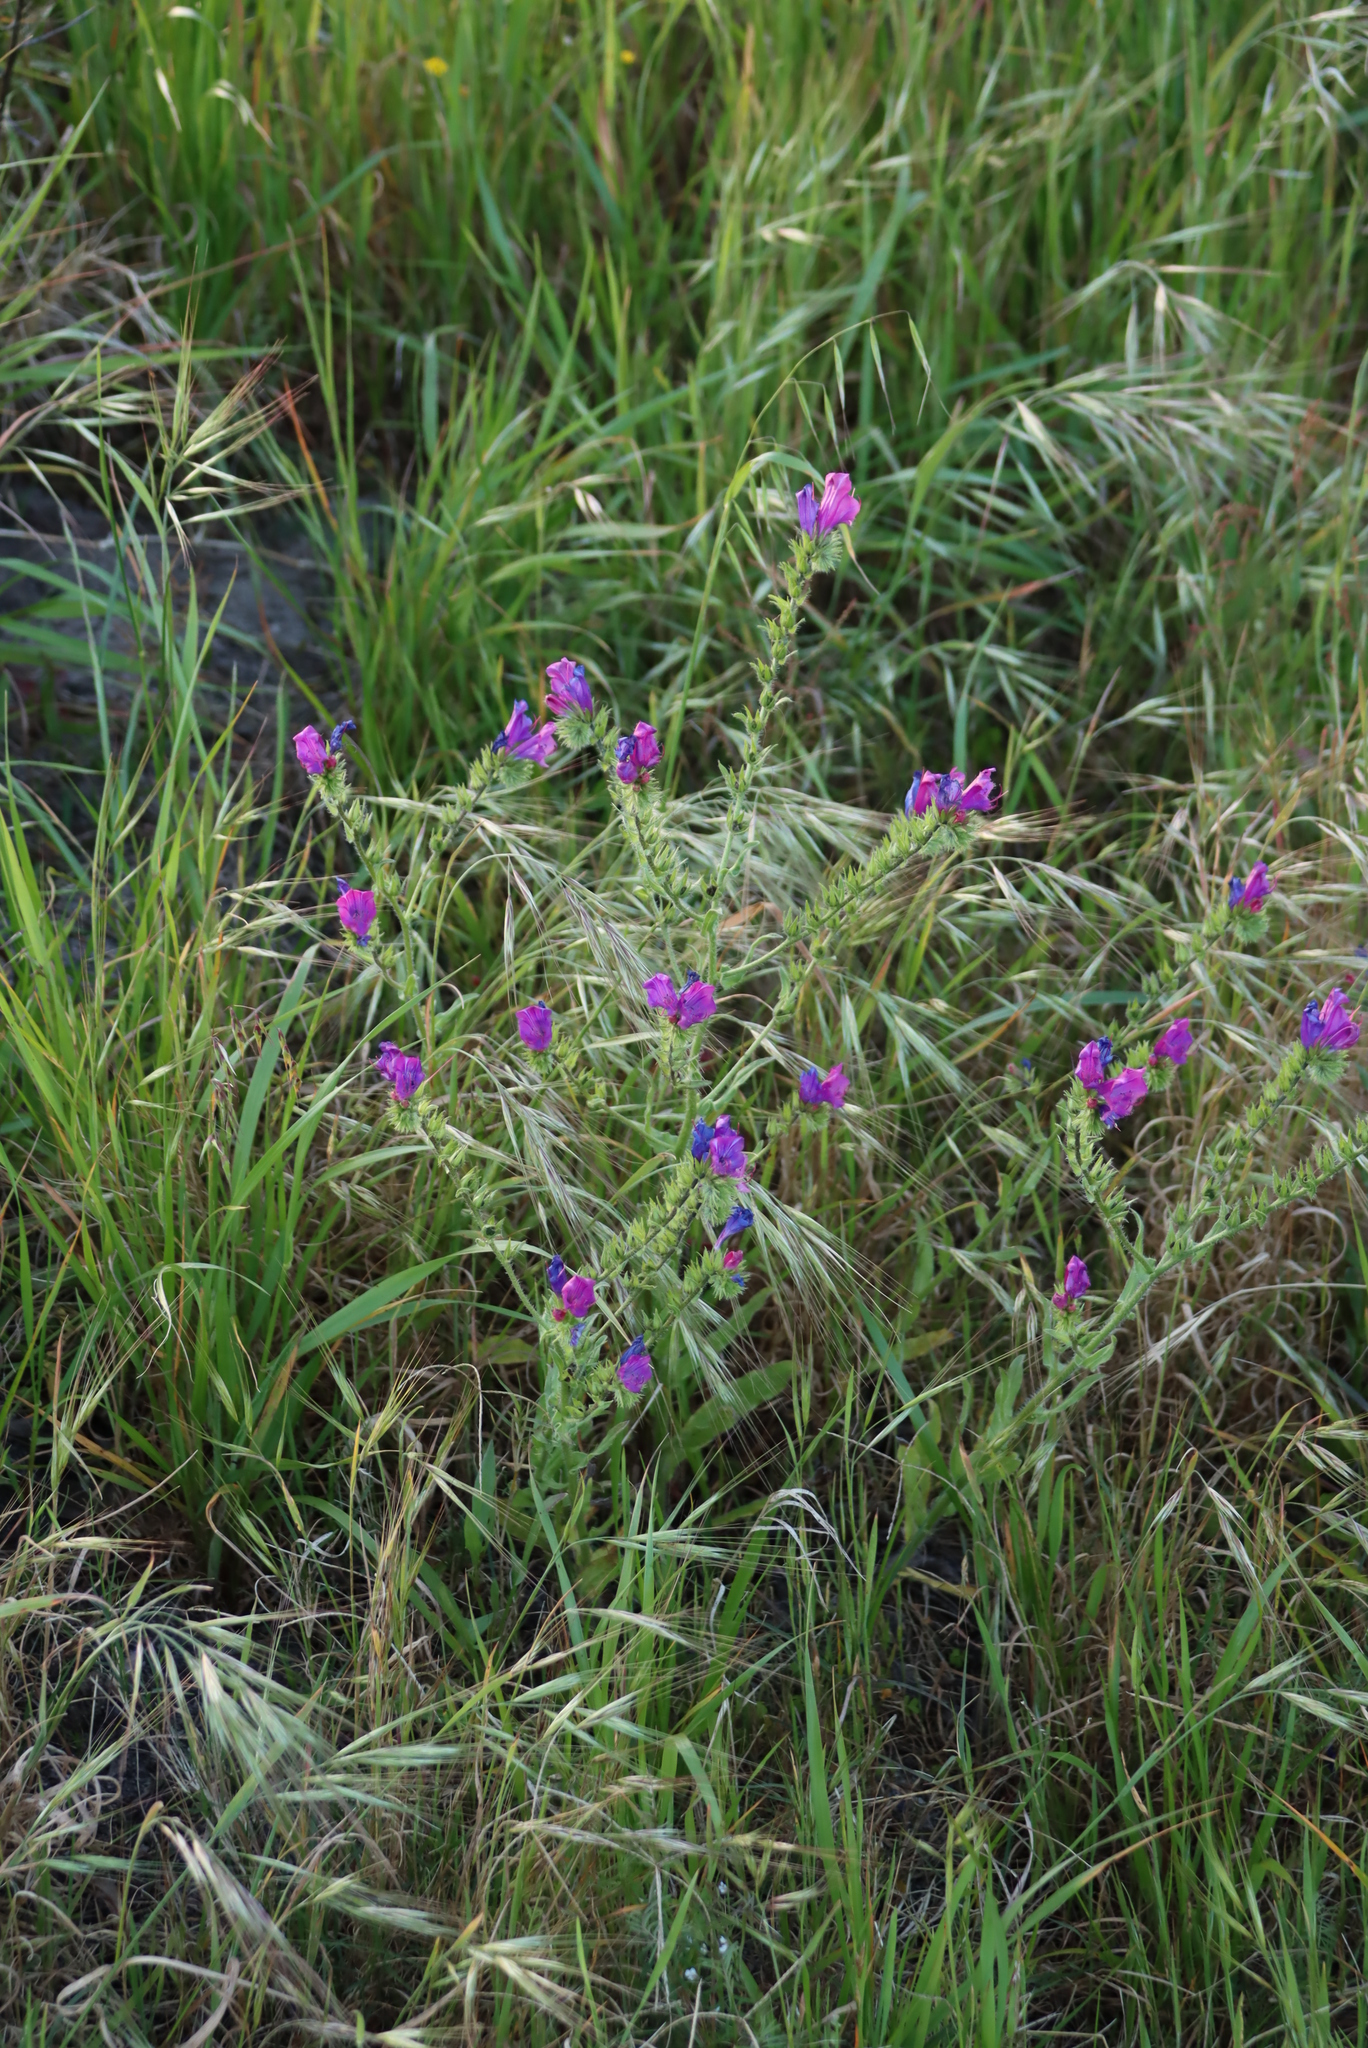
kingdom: Plantae
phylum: Tracheophyta
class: Magnoliopsida
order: Boraginales
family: Boraginaceae
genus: Echium
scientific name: Echium plantagineum
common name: Purple viper's-bugloss
